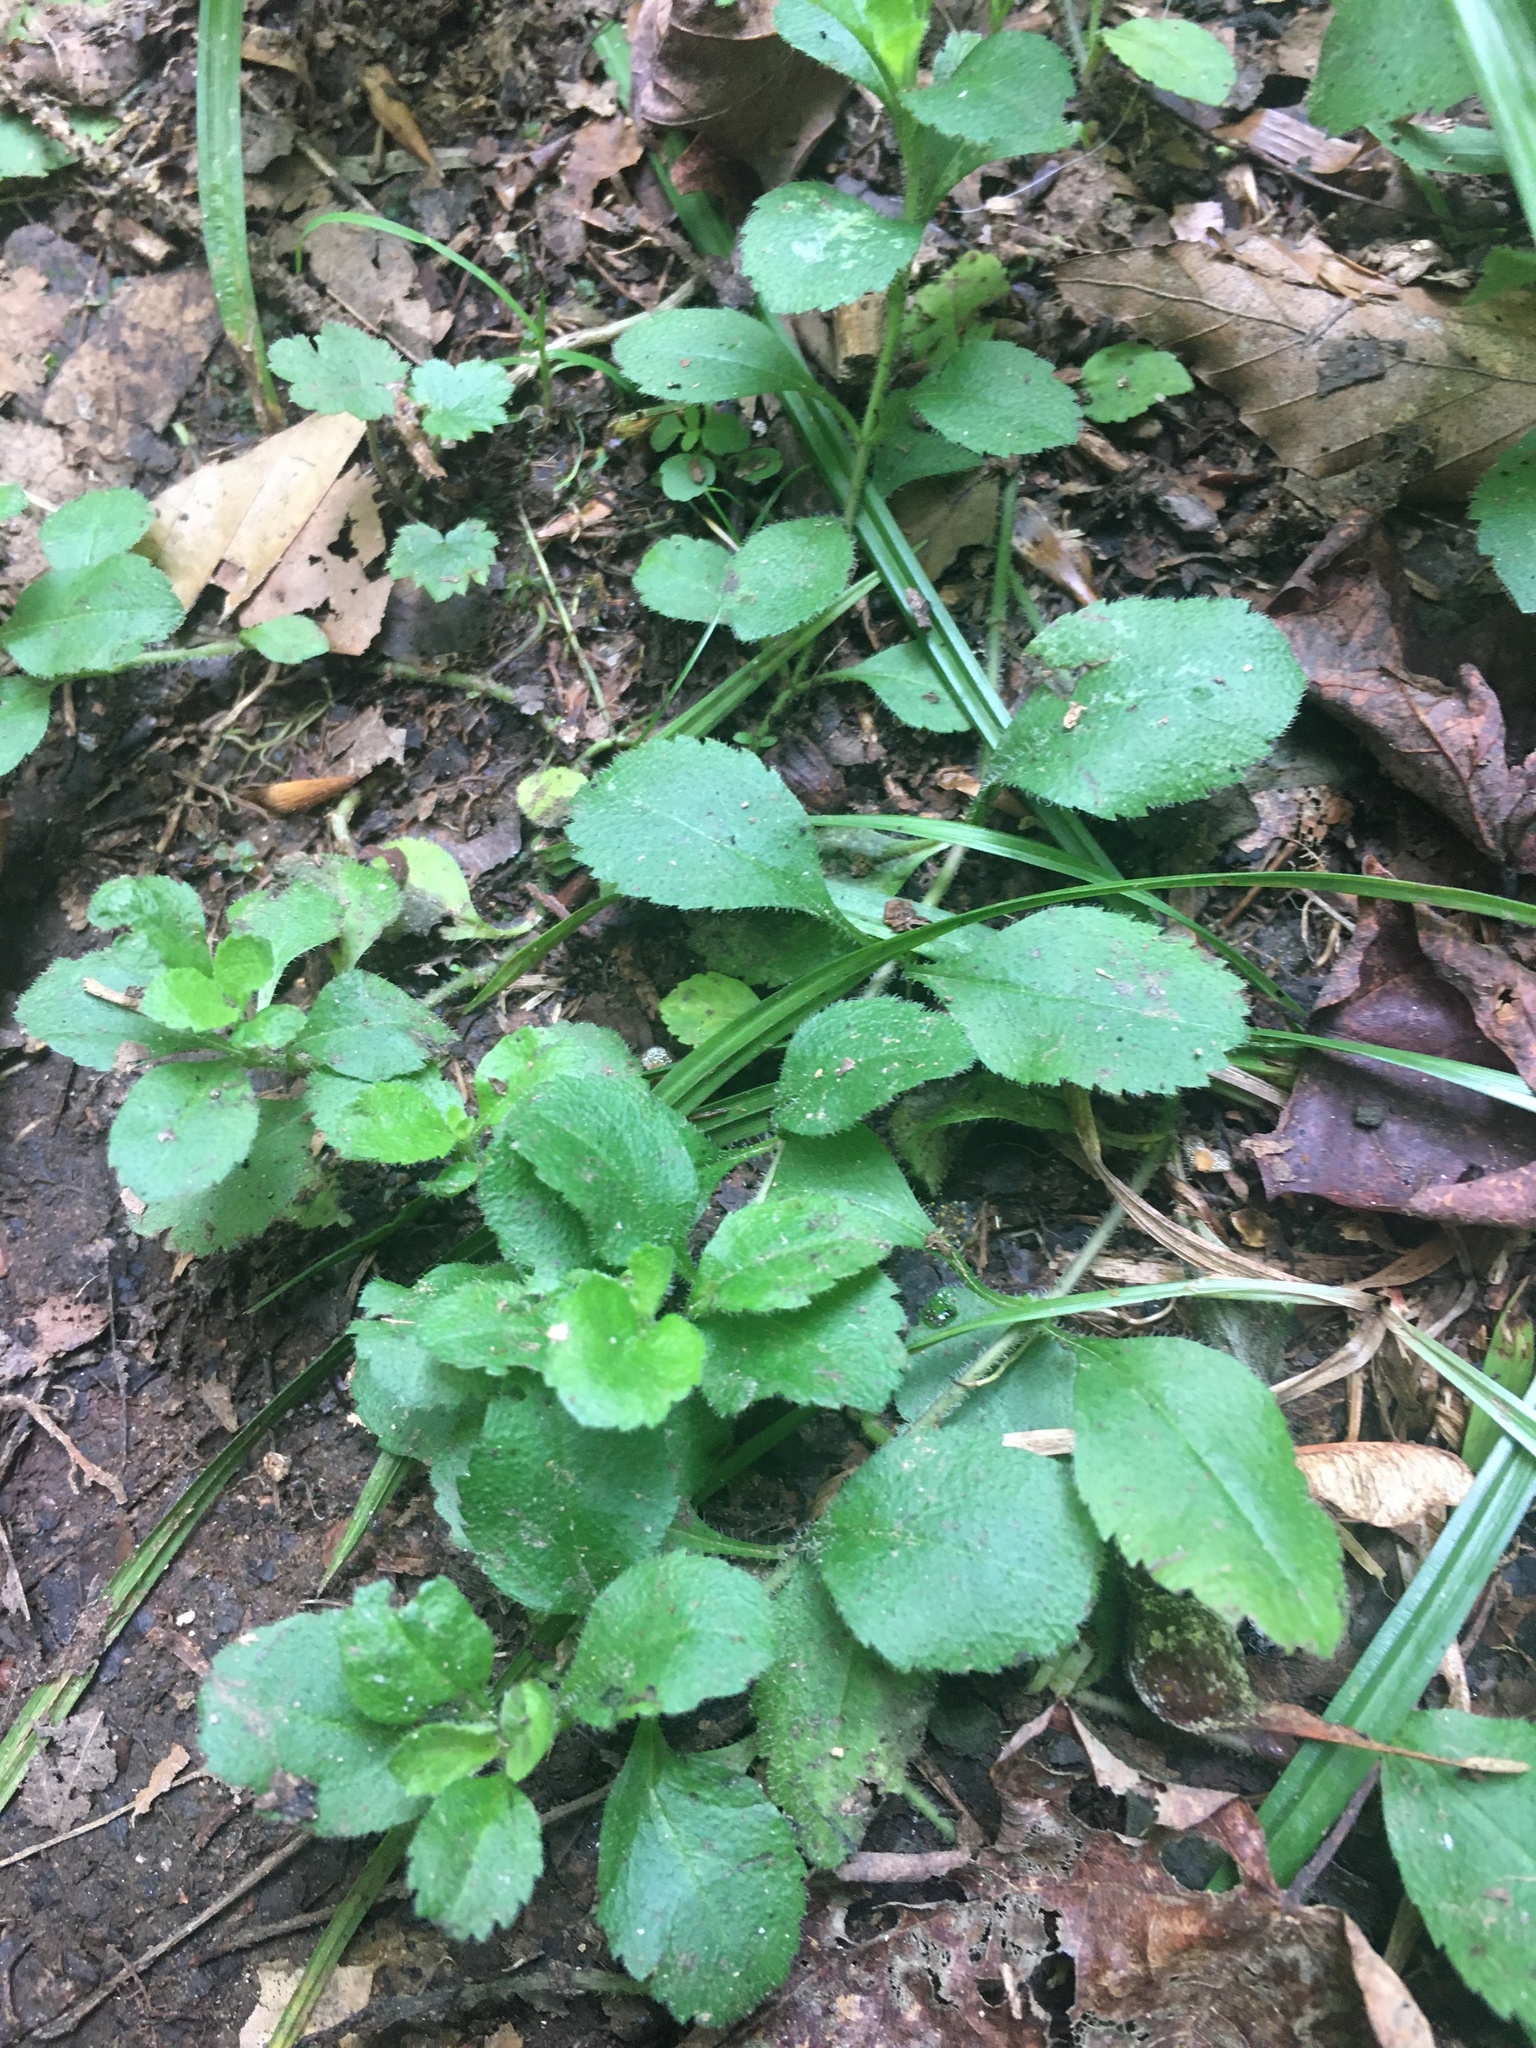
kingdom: Plantae
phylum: Tracheophyta
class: Magnoliopsida
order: Lamiales
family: Plantaginaceae
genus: Veronica
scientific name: Veronica officinalis
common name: Common speedwell
